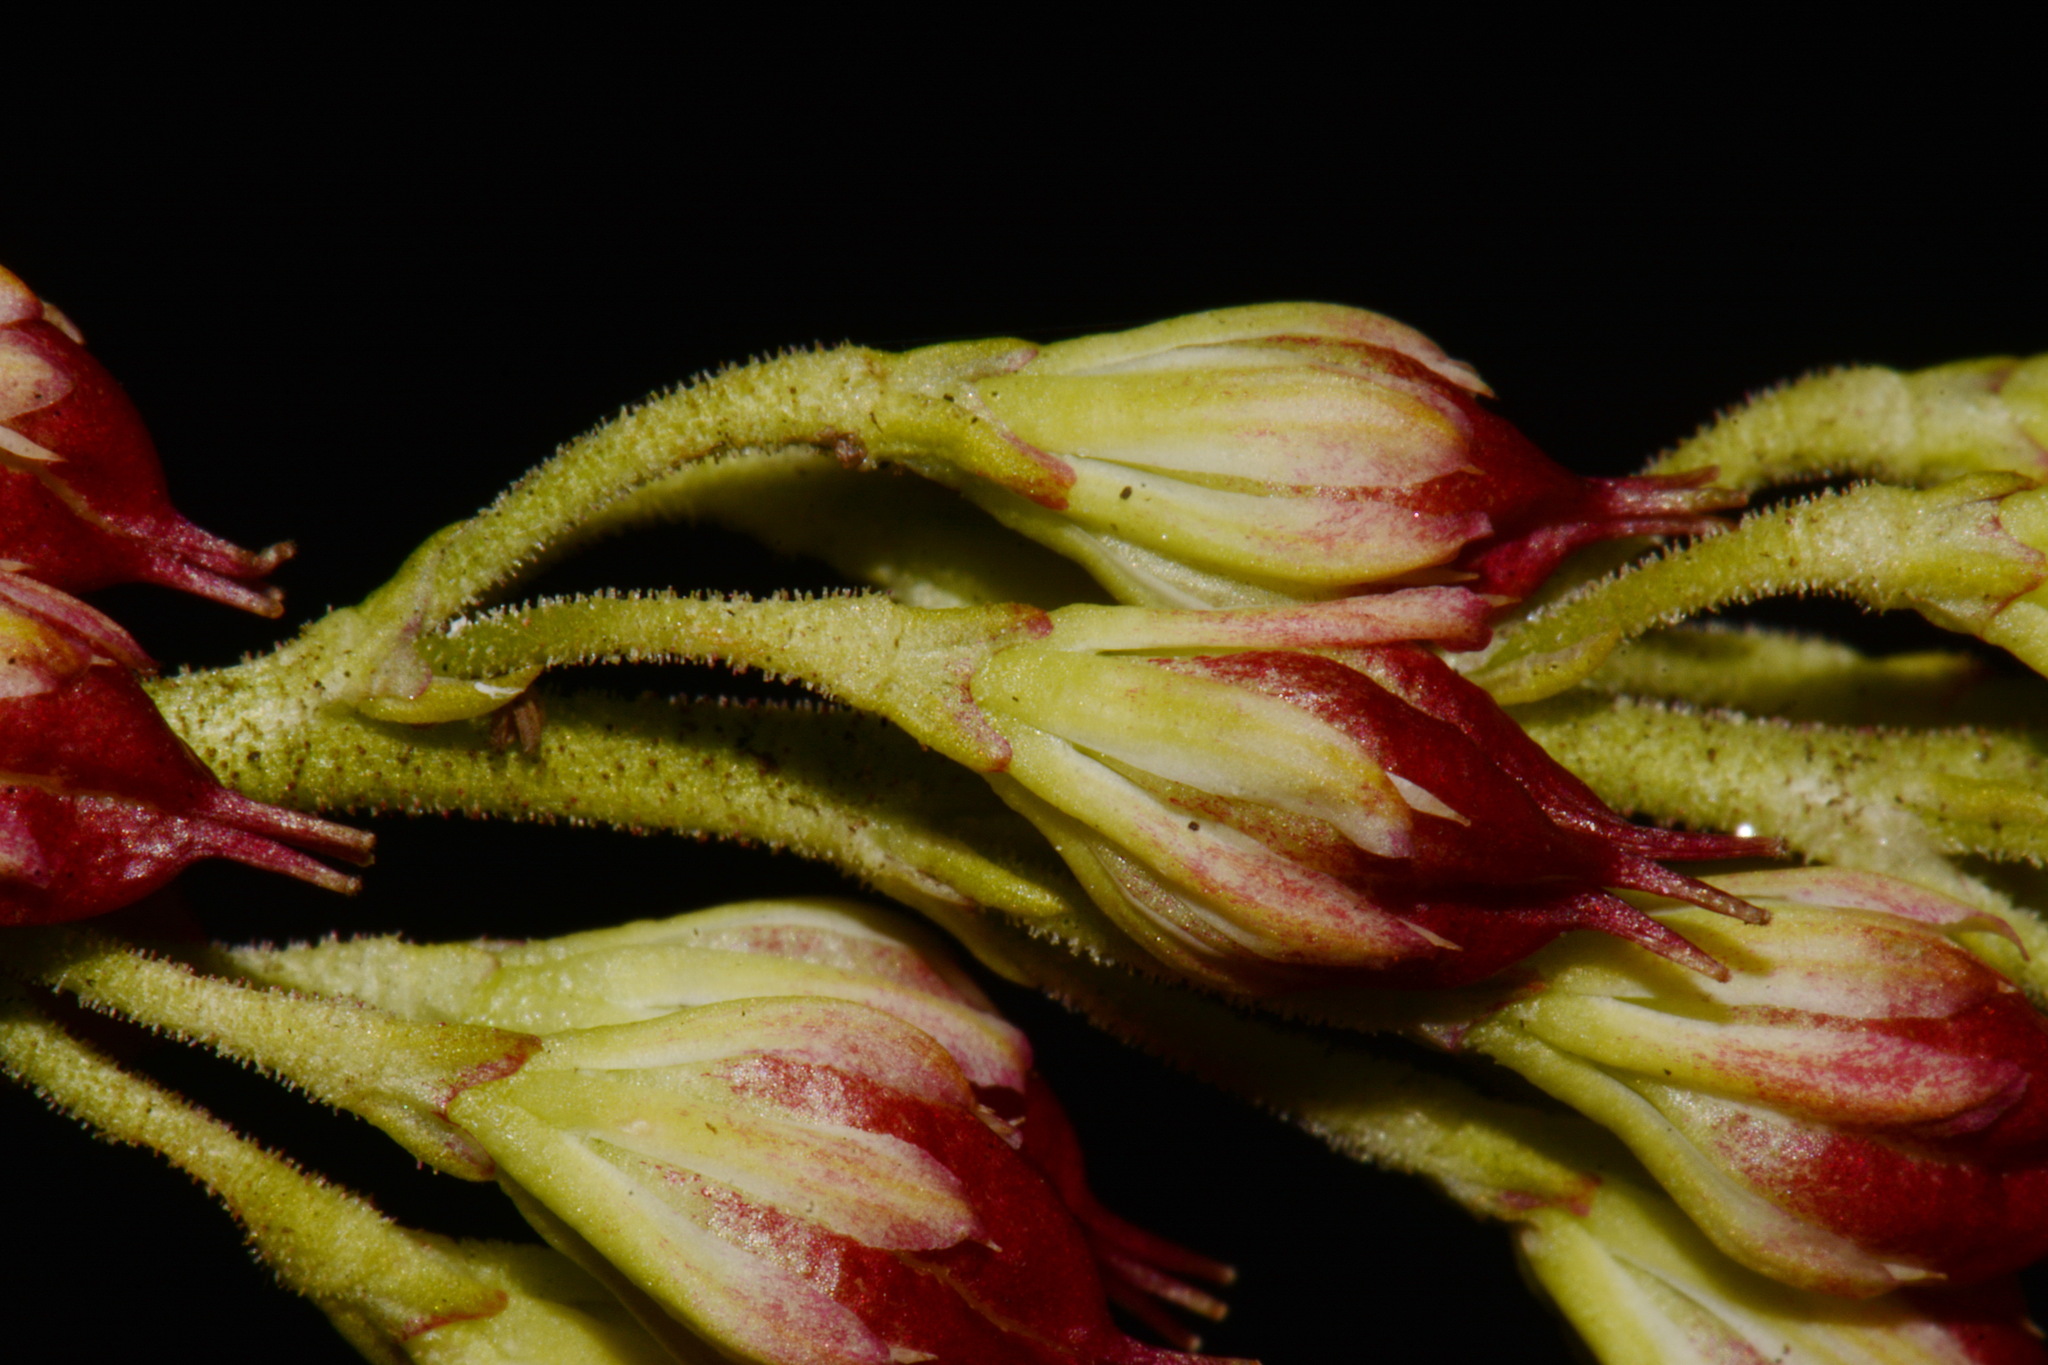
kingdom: Plantae
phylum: Tracheophyta
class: Liliopsida
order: Alismatales
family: Tofieldiaceae
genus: Triantha
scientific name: Triantha glutinosa
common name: Glutinous tofieldia
